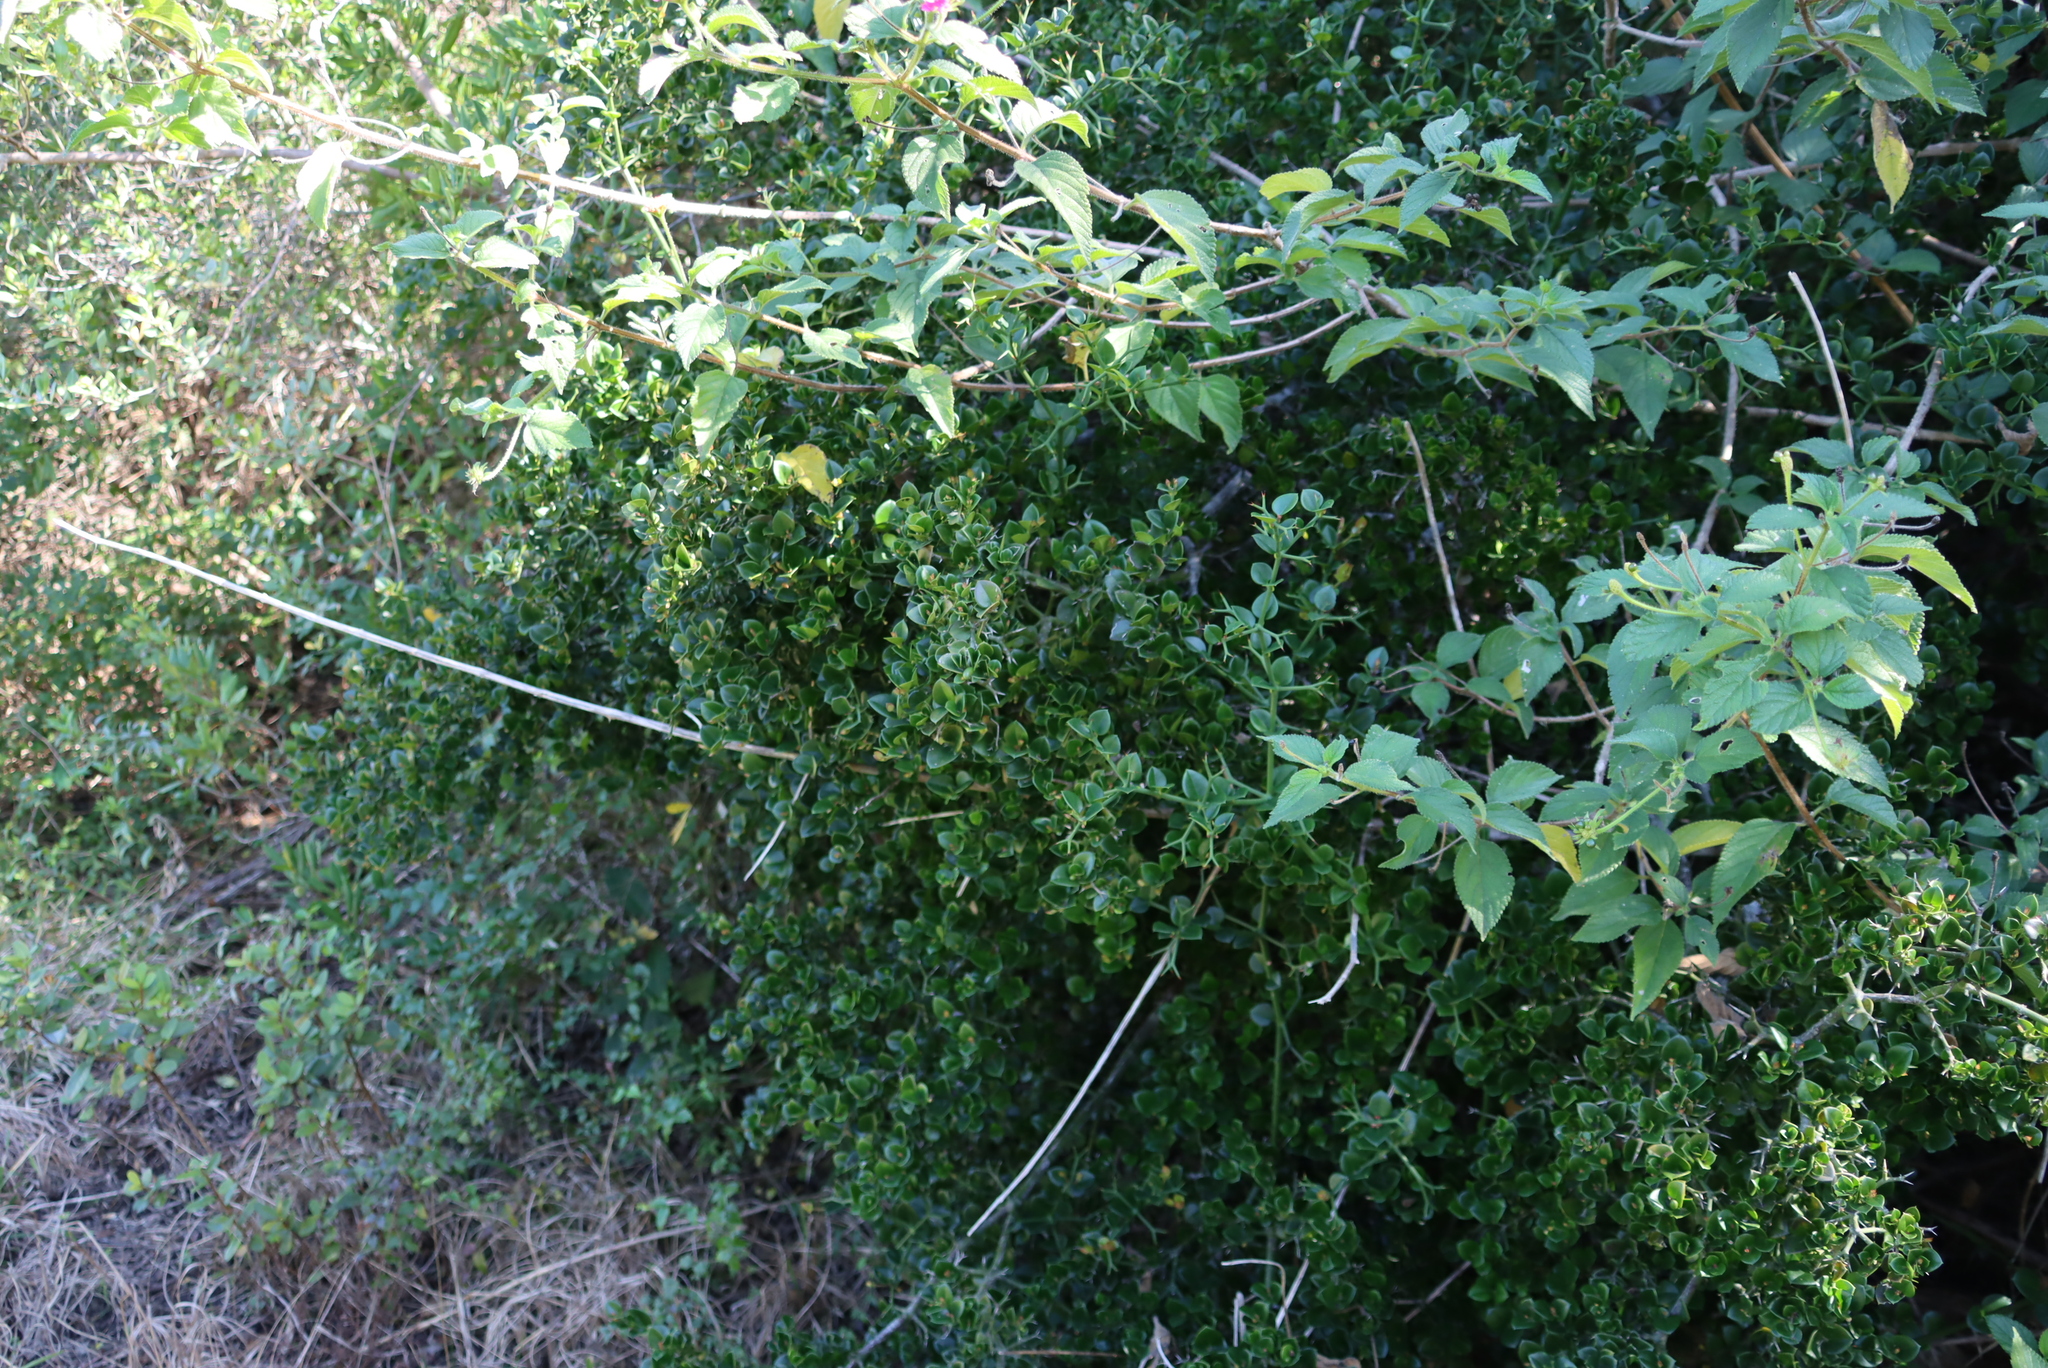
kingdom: Plantae
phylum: Tracheophyta
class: Magnoliopsida
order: Lamiales
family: Verbenaceae
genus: Lantana
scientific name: Lantana camara
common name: Lantana
